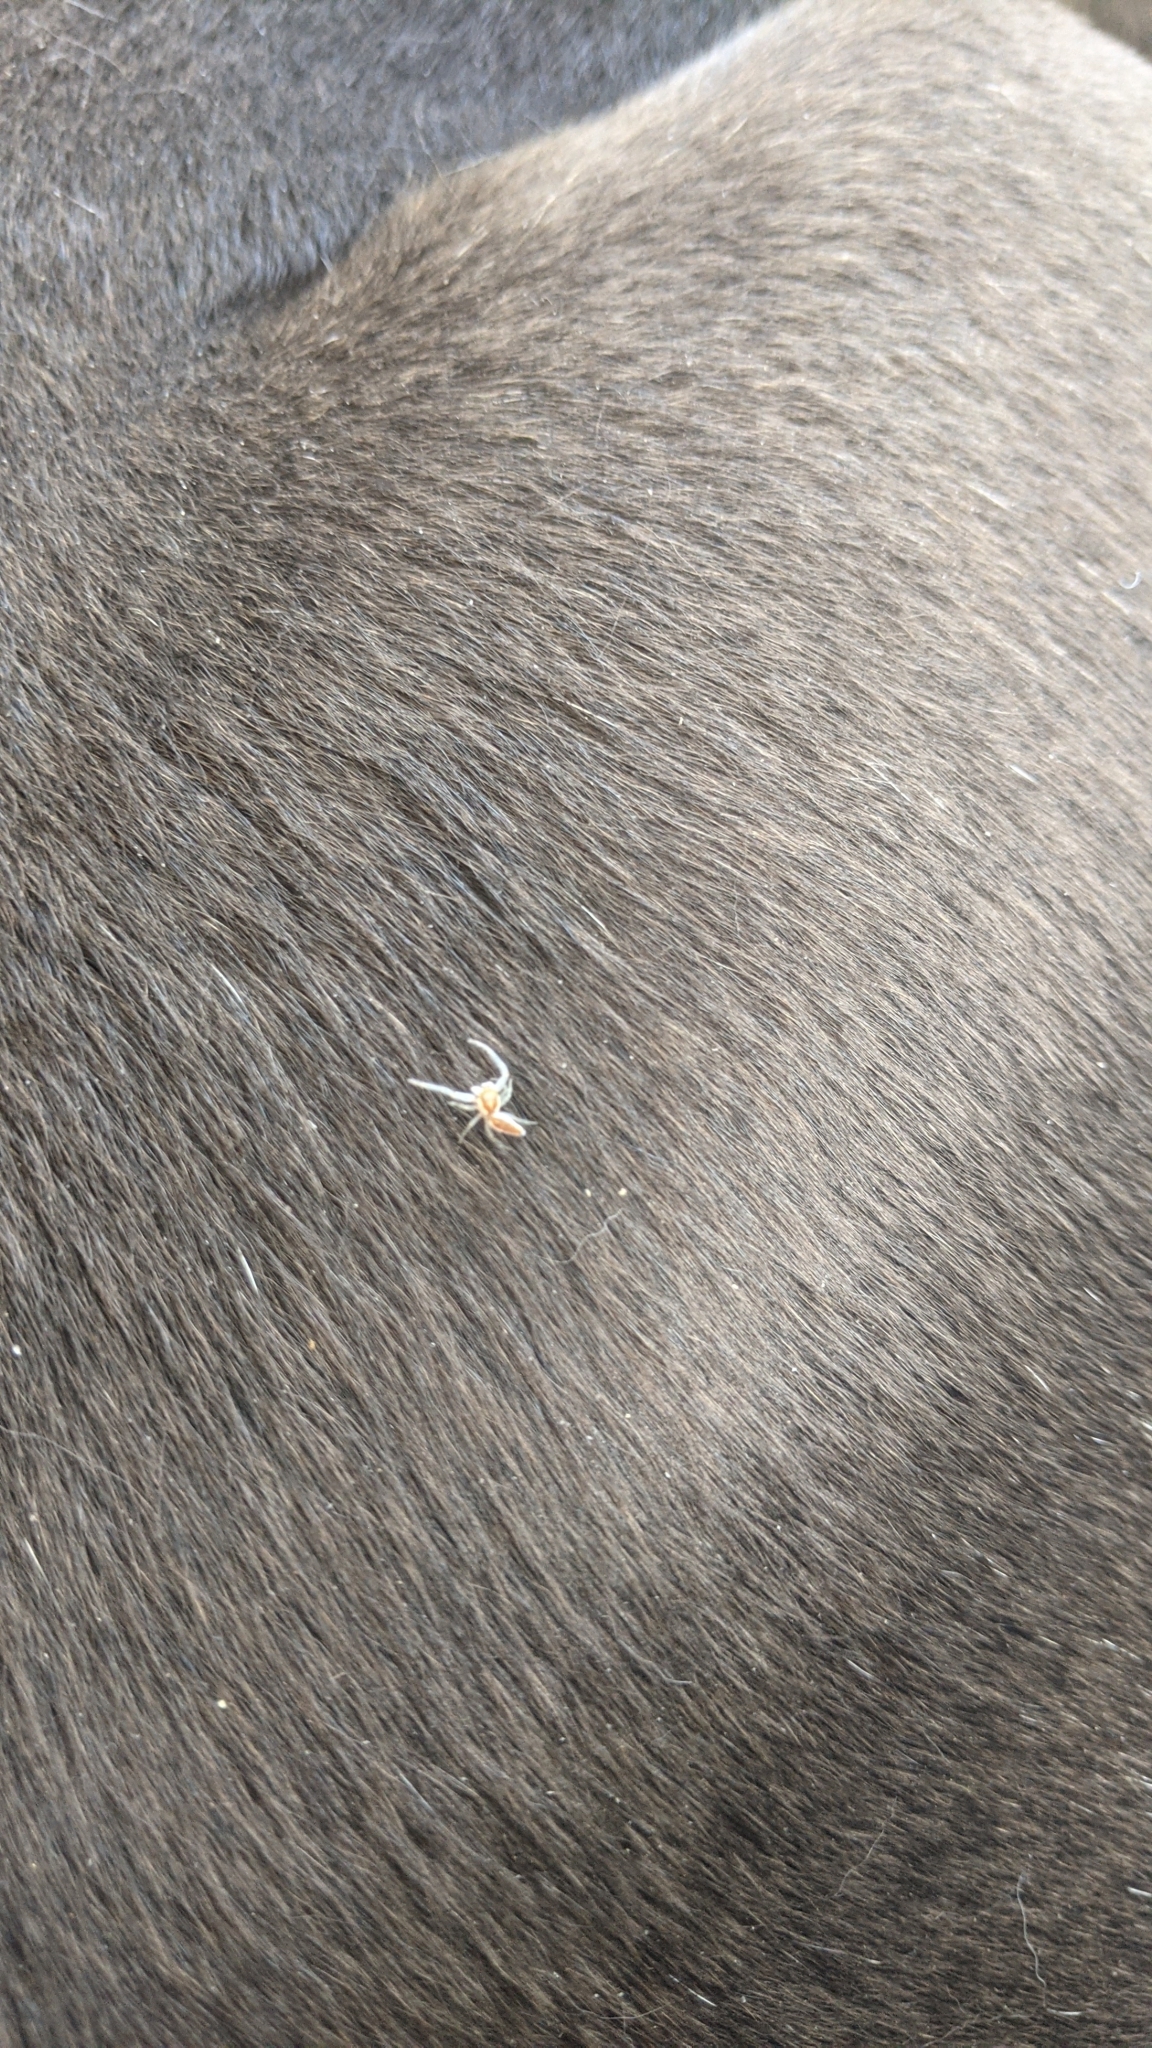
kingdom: Animalia
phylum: Arthropoda
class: Arachnida
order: Araneae
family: Salticidae
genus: Hentzia
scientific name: Hentzia mitrata
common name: White-jawed jumping spider
